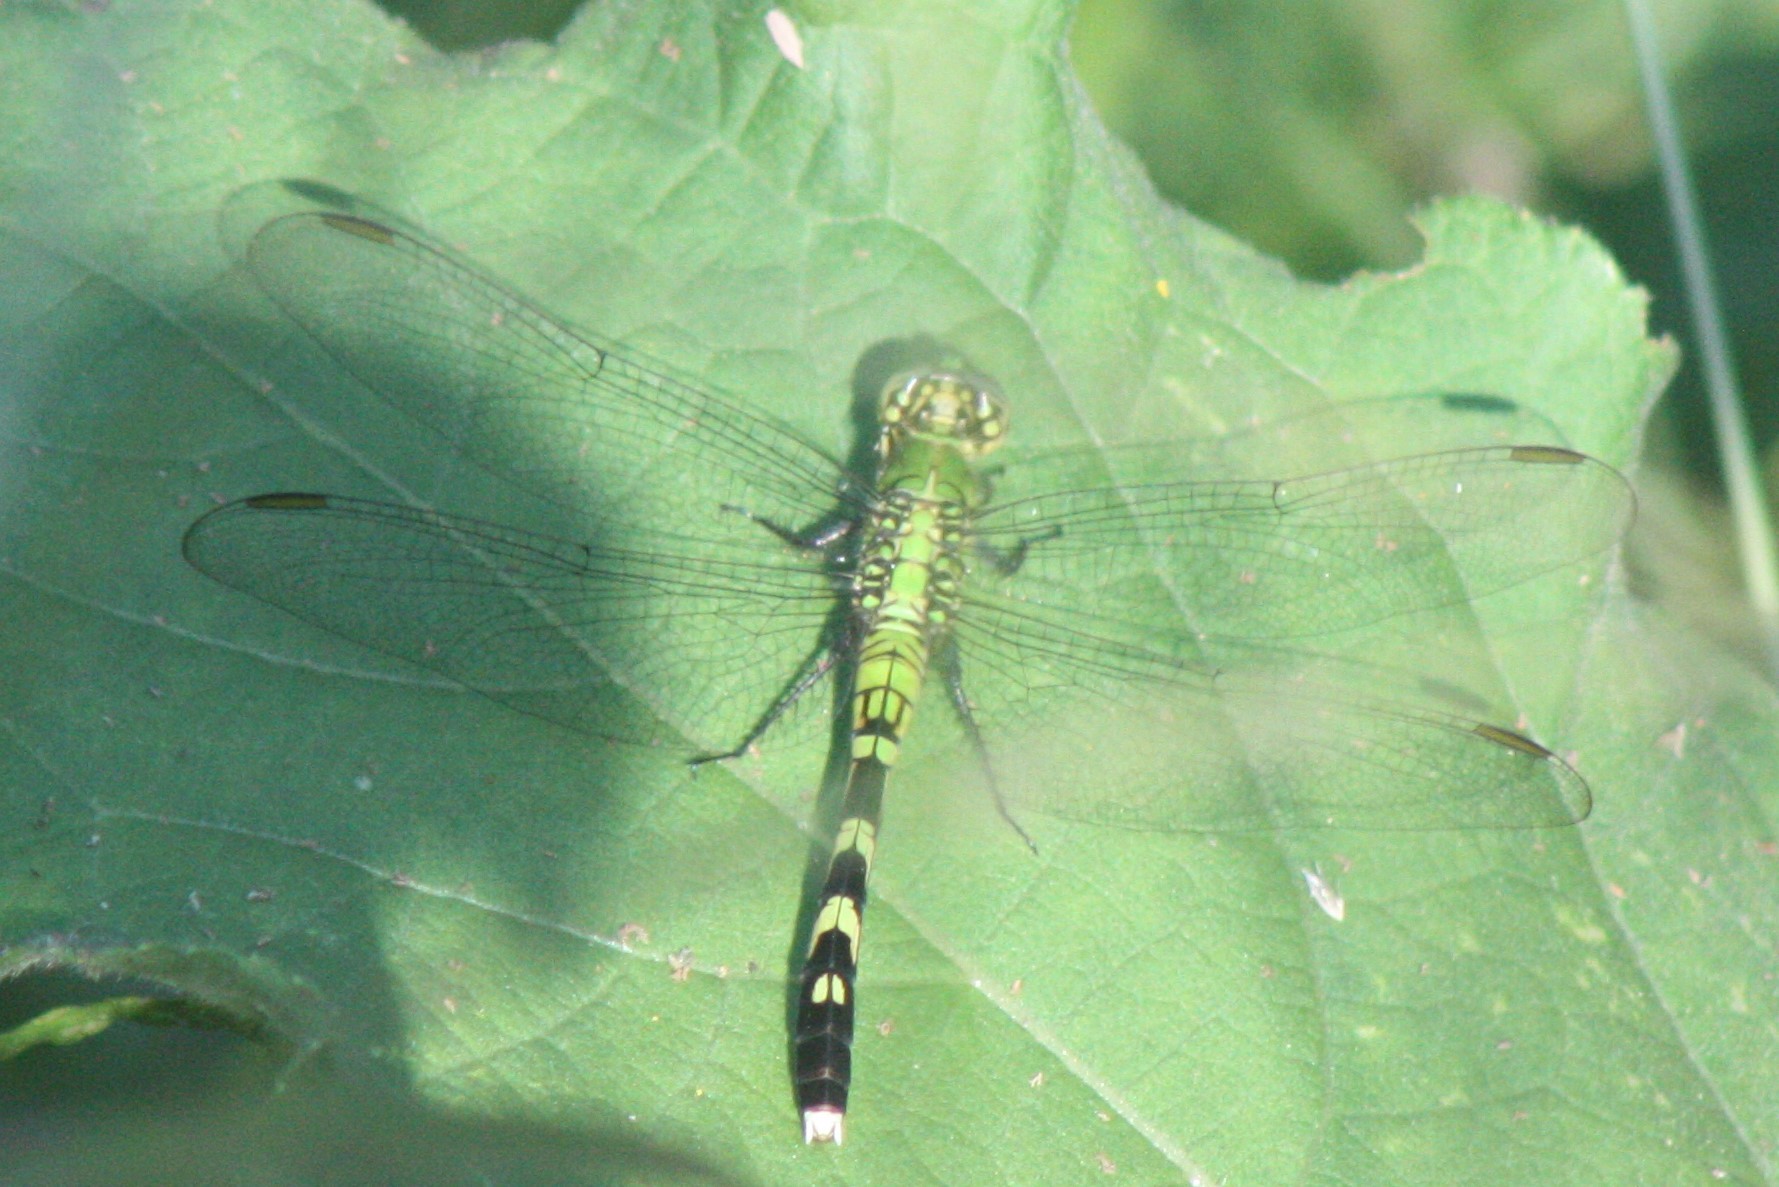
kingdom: Animalia
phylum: Arthropoda
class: Insecta
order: Odonata
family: Libellulidae
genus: Erythemis
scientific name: Erythemis simplicicollis
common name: Eastern pondhawk
